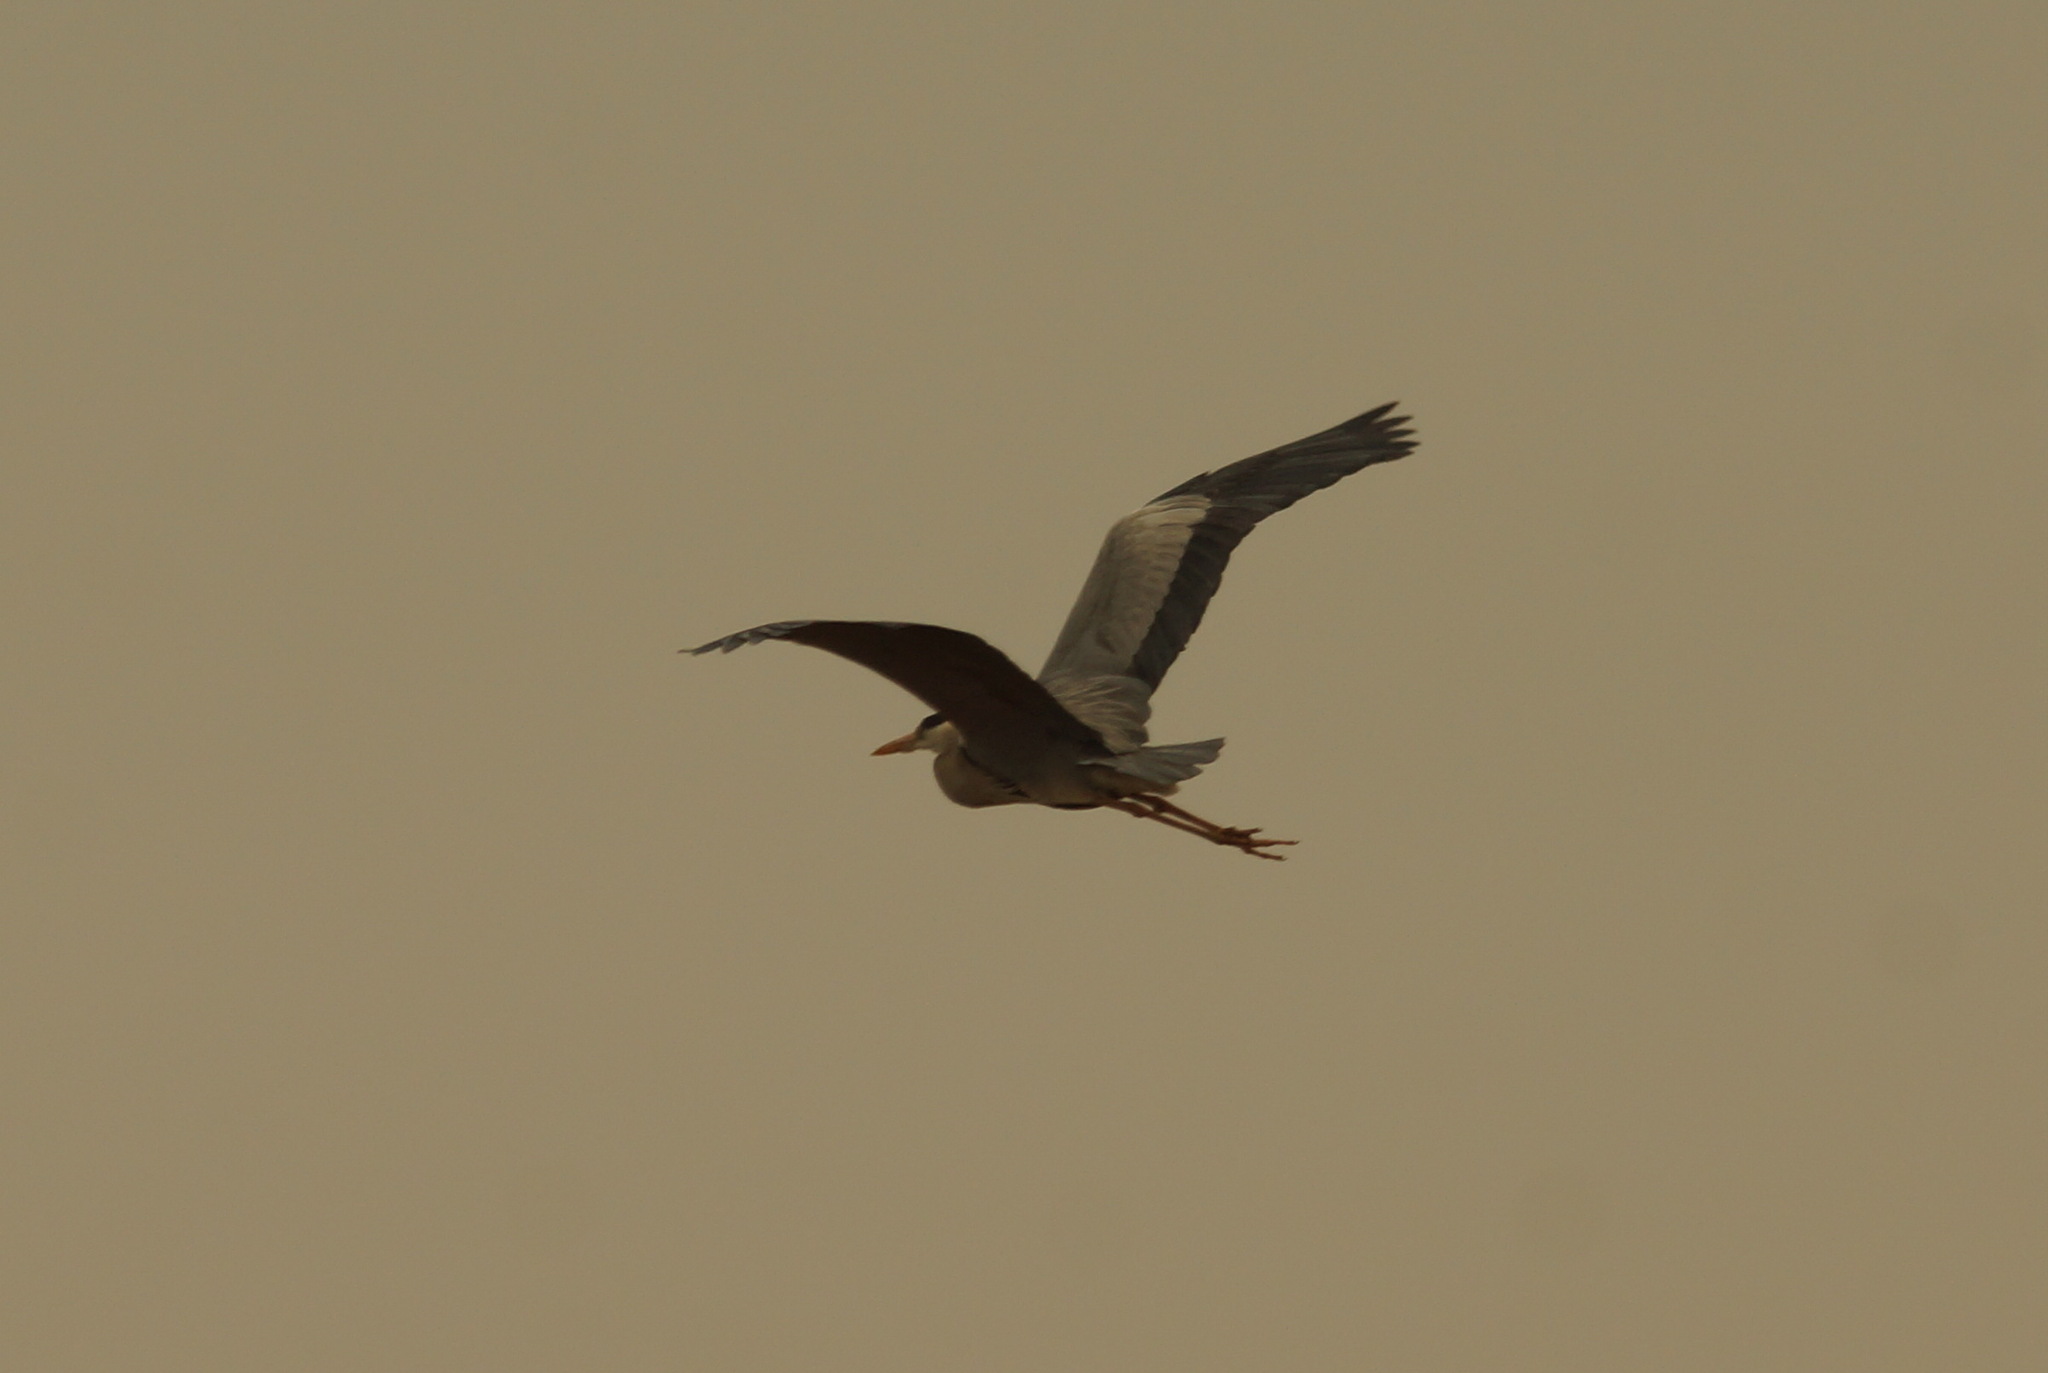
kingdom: Animalia
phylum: Chordata
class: Aves
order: Pelecaniformes
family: Ardeidae
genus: Ardea
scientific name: Ardea cinerea
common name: Grey heron
